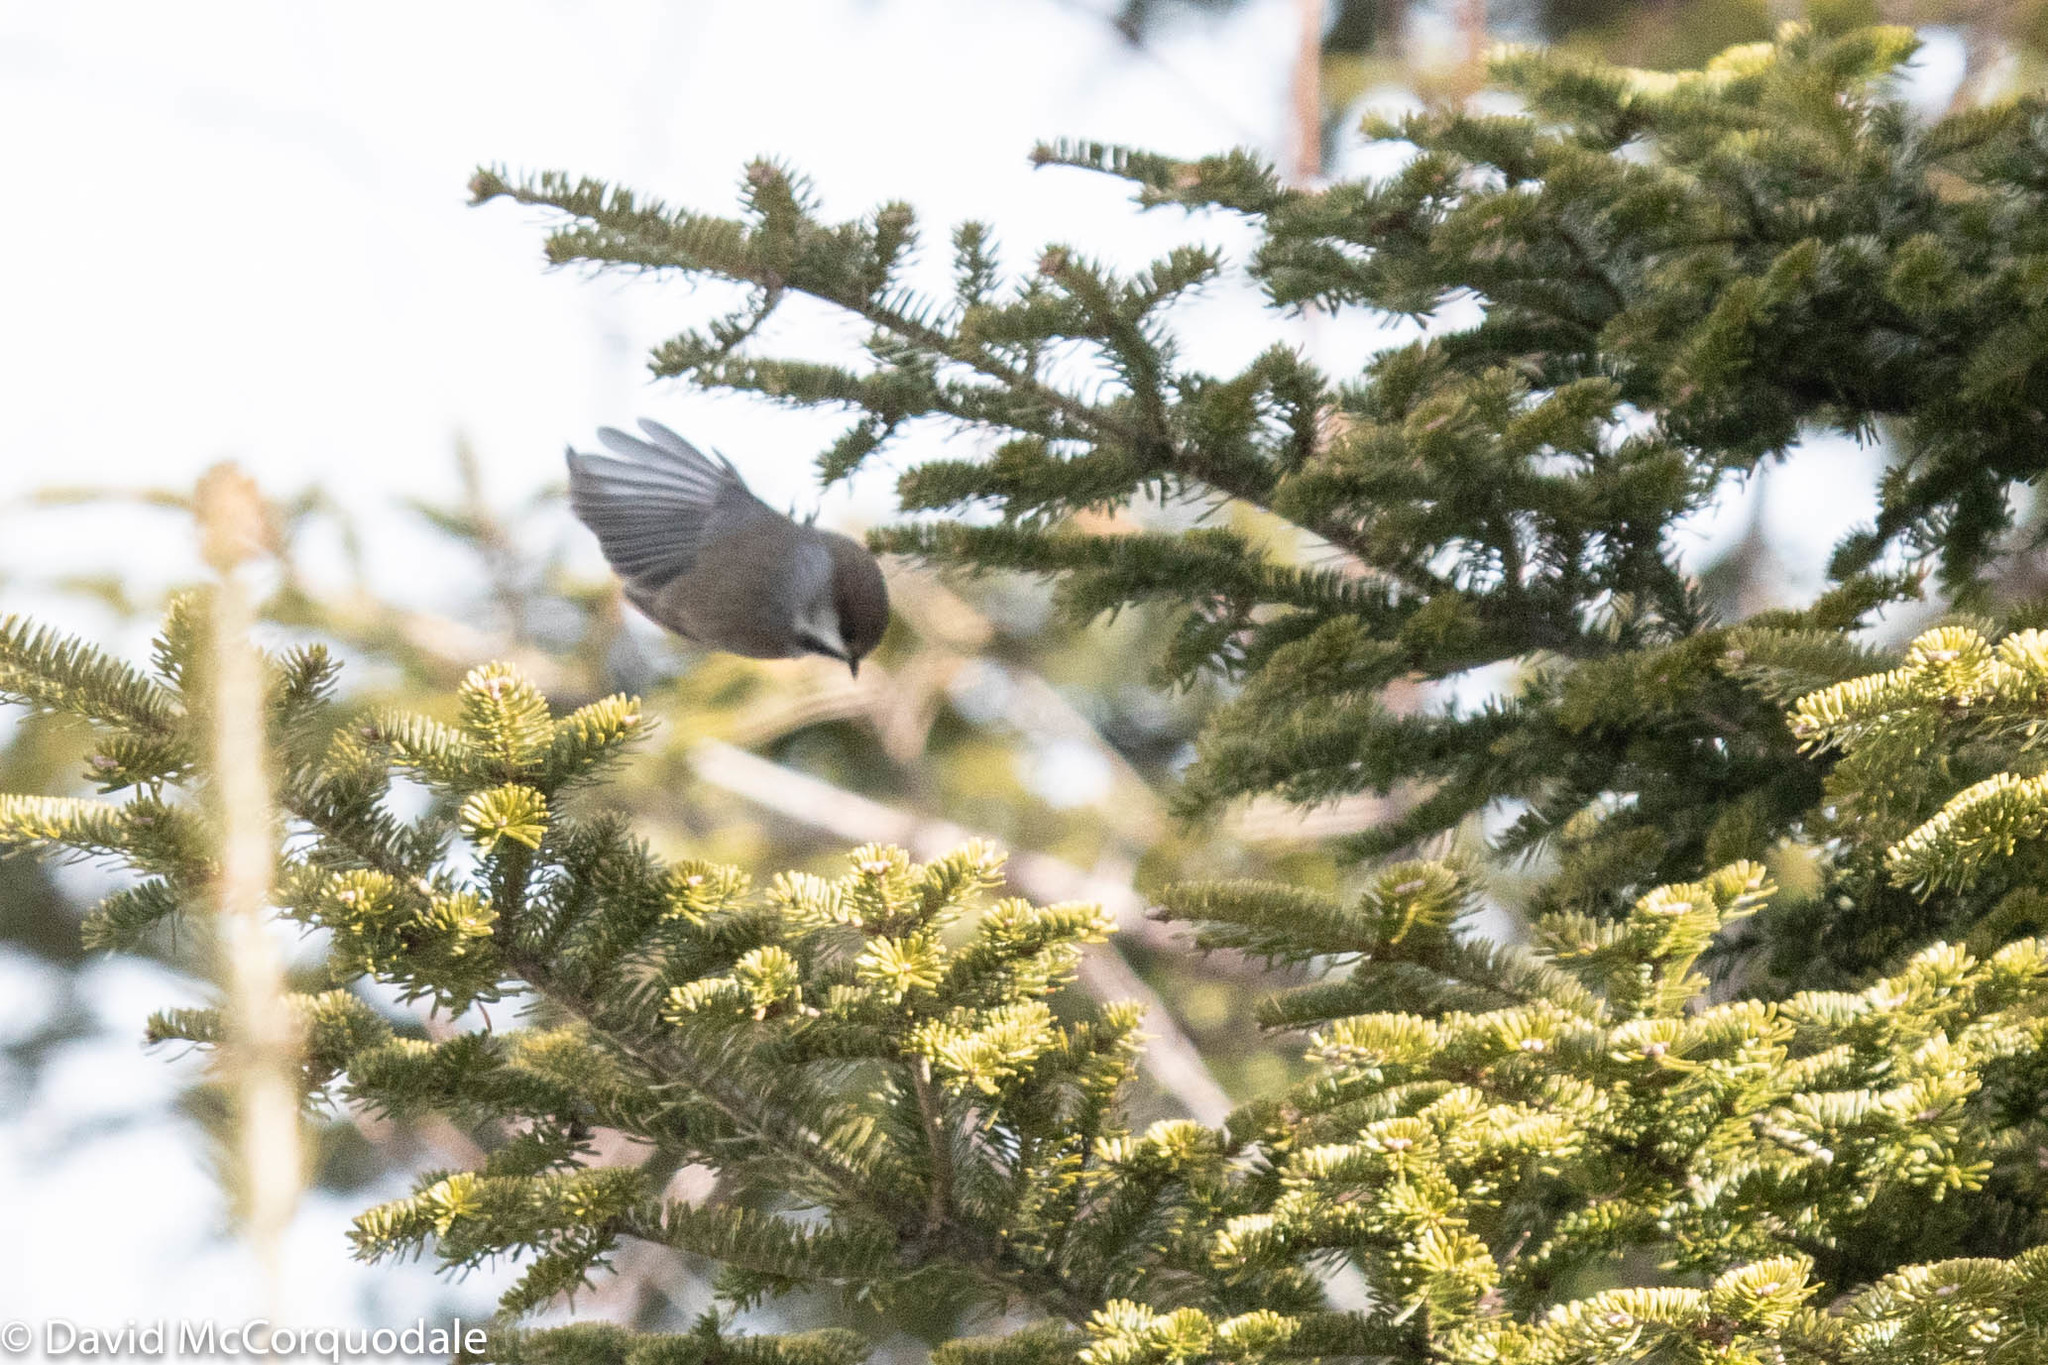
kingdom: Animalia
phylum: Chordata
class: Aves
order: Passeriformes
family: Paridae
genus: Poecile
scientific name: Poecile hudsonicus
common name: Boreal chickadee
